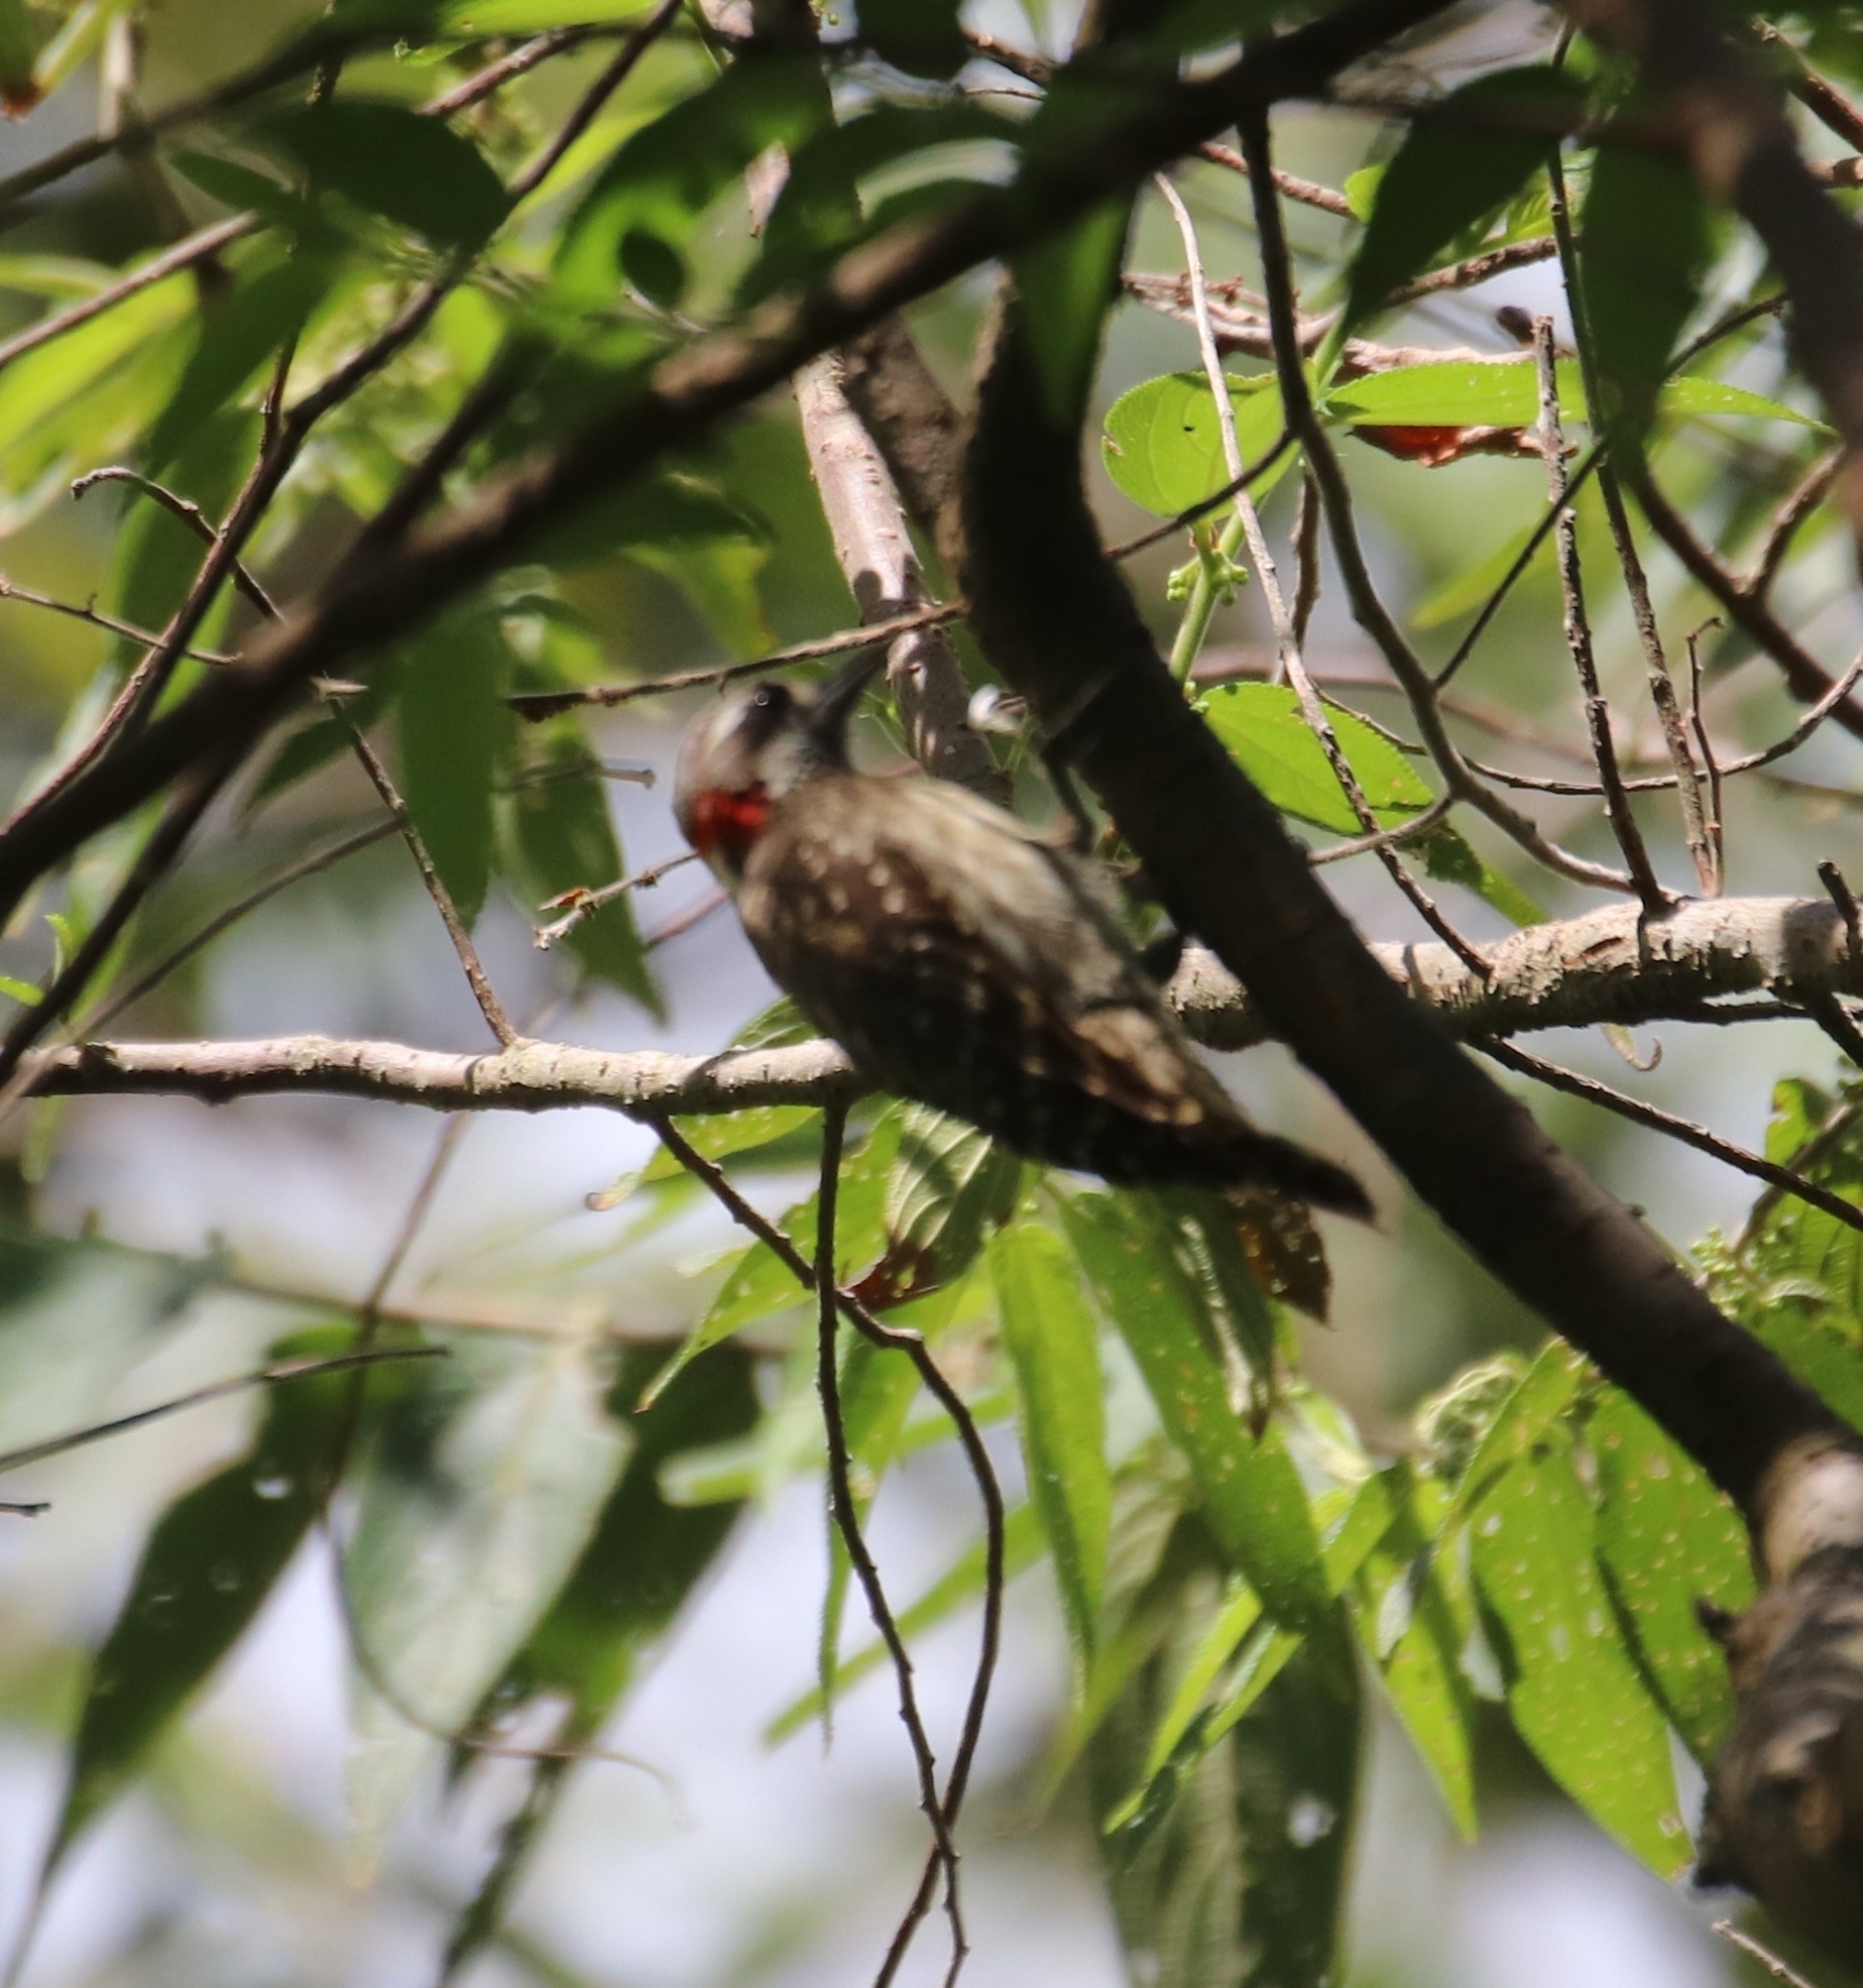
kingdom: Animalia
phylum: Chordata
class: Aves
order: Piciformes
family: Picidae
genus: Yungipicus
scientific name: Yungipicus temminckii
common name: Sulawesi pygmy woodpecker
